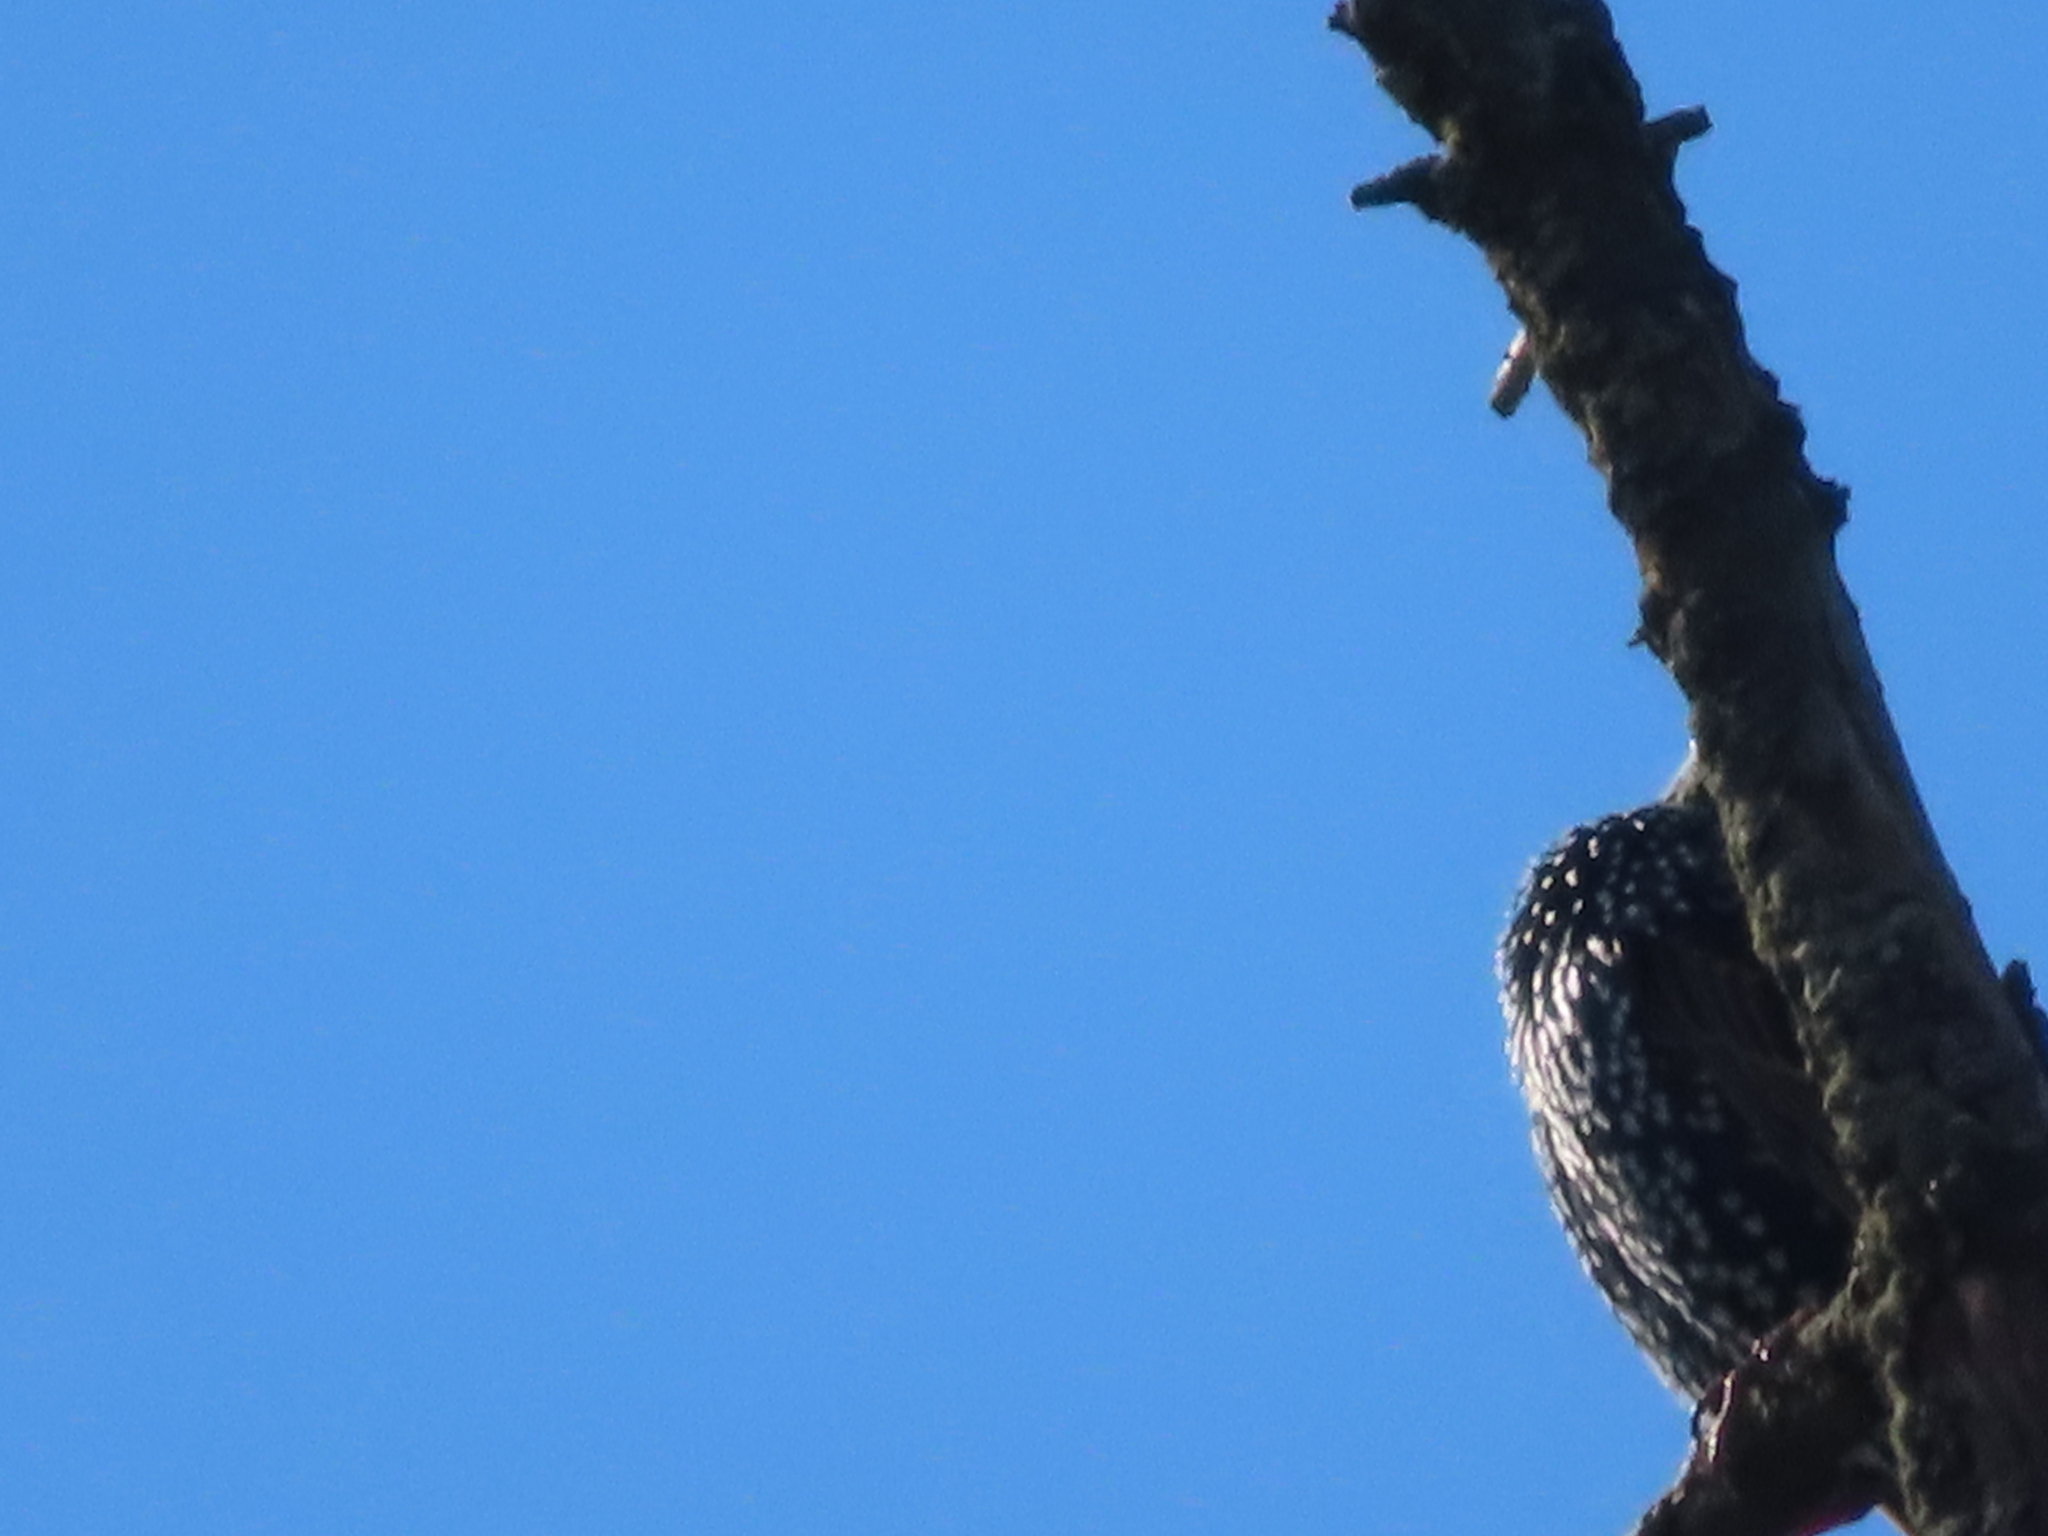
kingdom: Animalia
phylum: Chordata
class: Aves
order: Passeriformes
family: Sturnidae
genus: Sturnus
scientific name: Sturnus vulgaris
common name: Common starling
